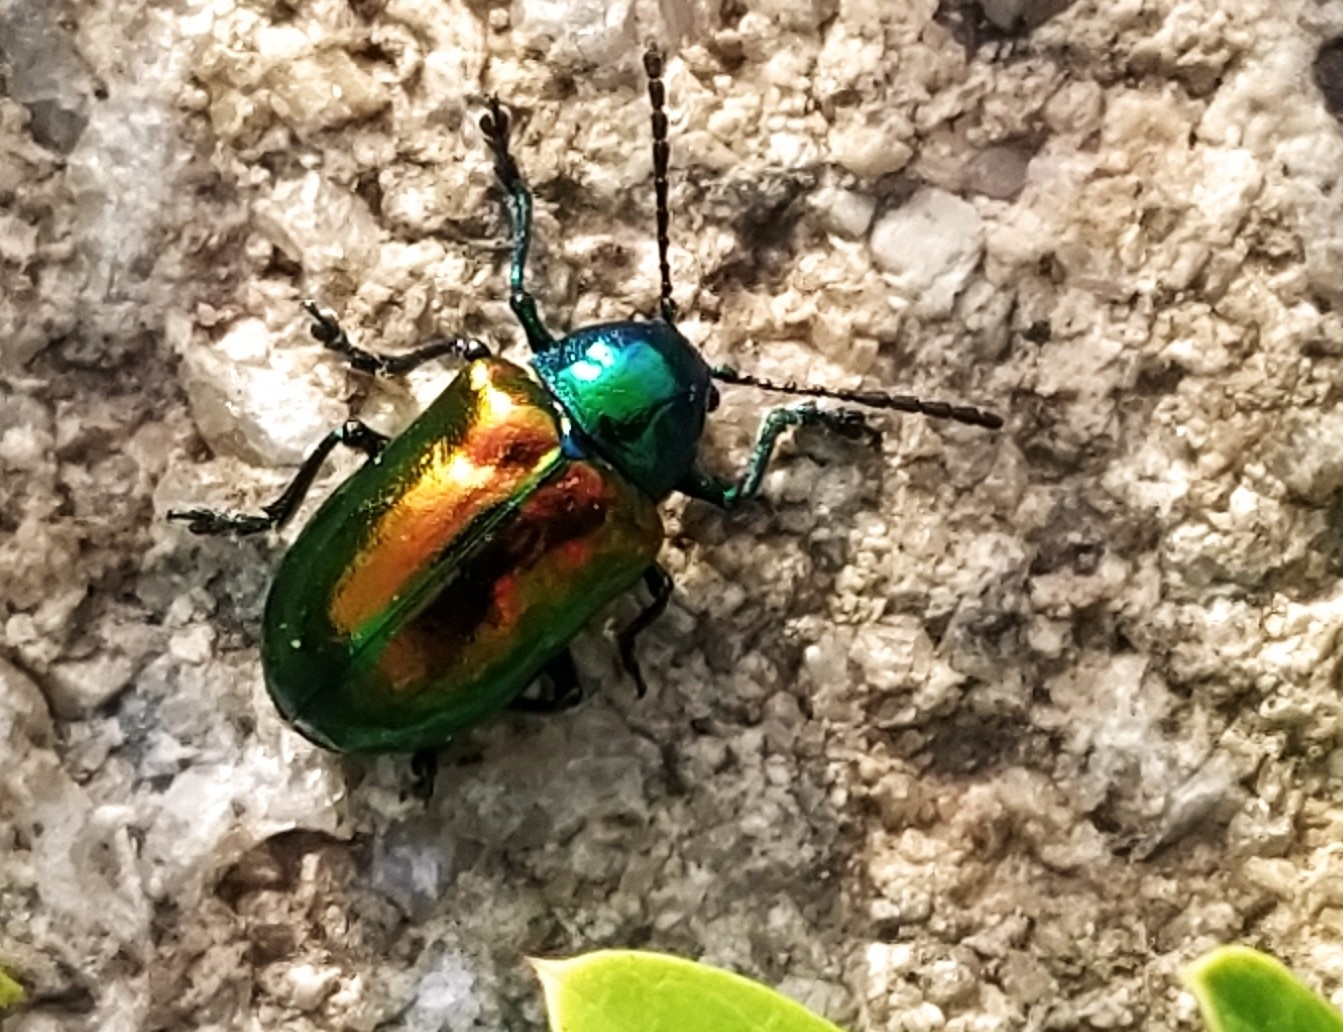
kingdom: Animalia
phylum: Arthropoda
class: Insecta
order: Coleoptera
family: Chrysomelidae
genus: Chrysochus
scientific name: Chrysochus auratus
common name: Dogbane leaf beetle
